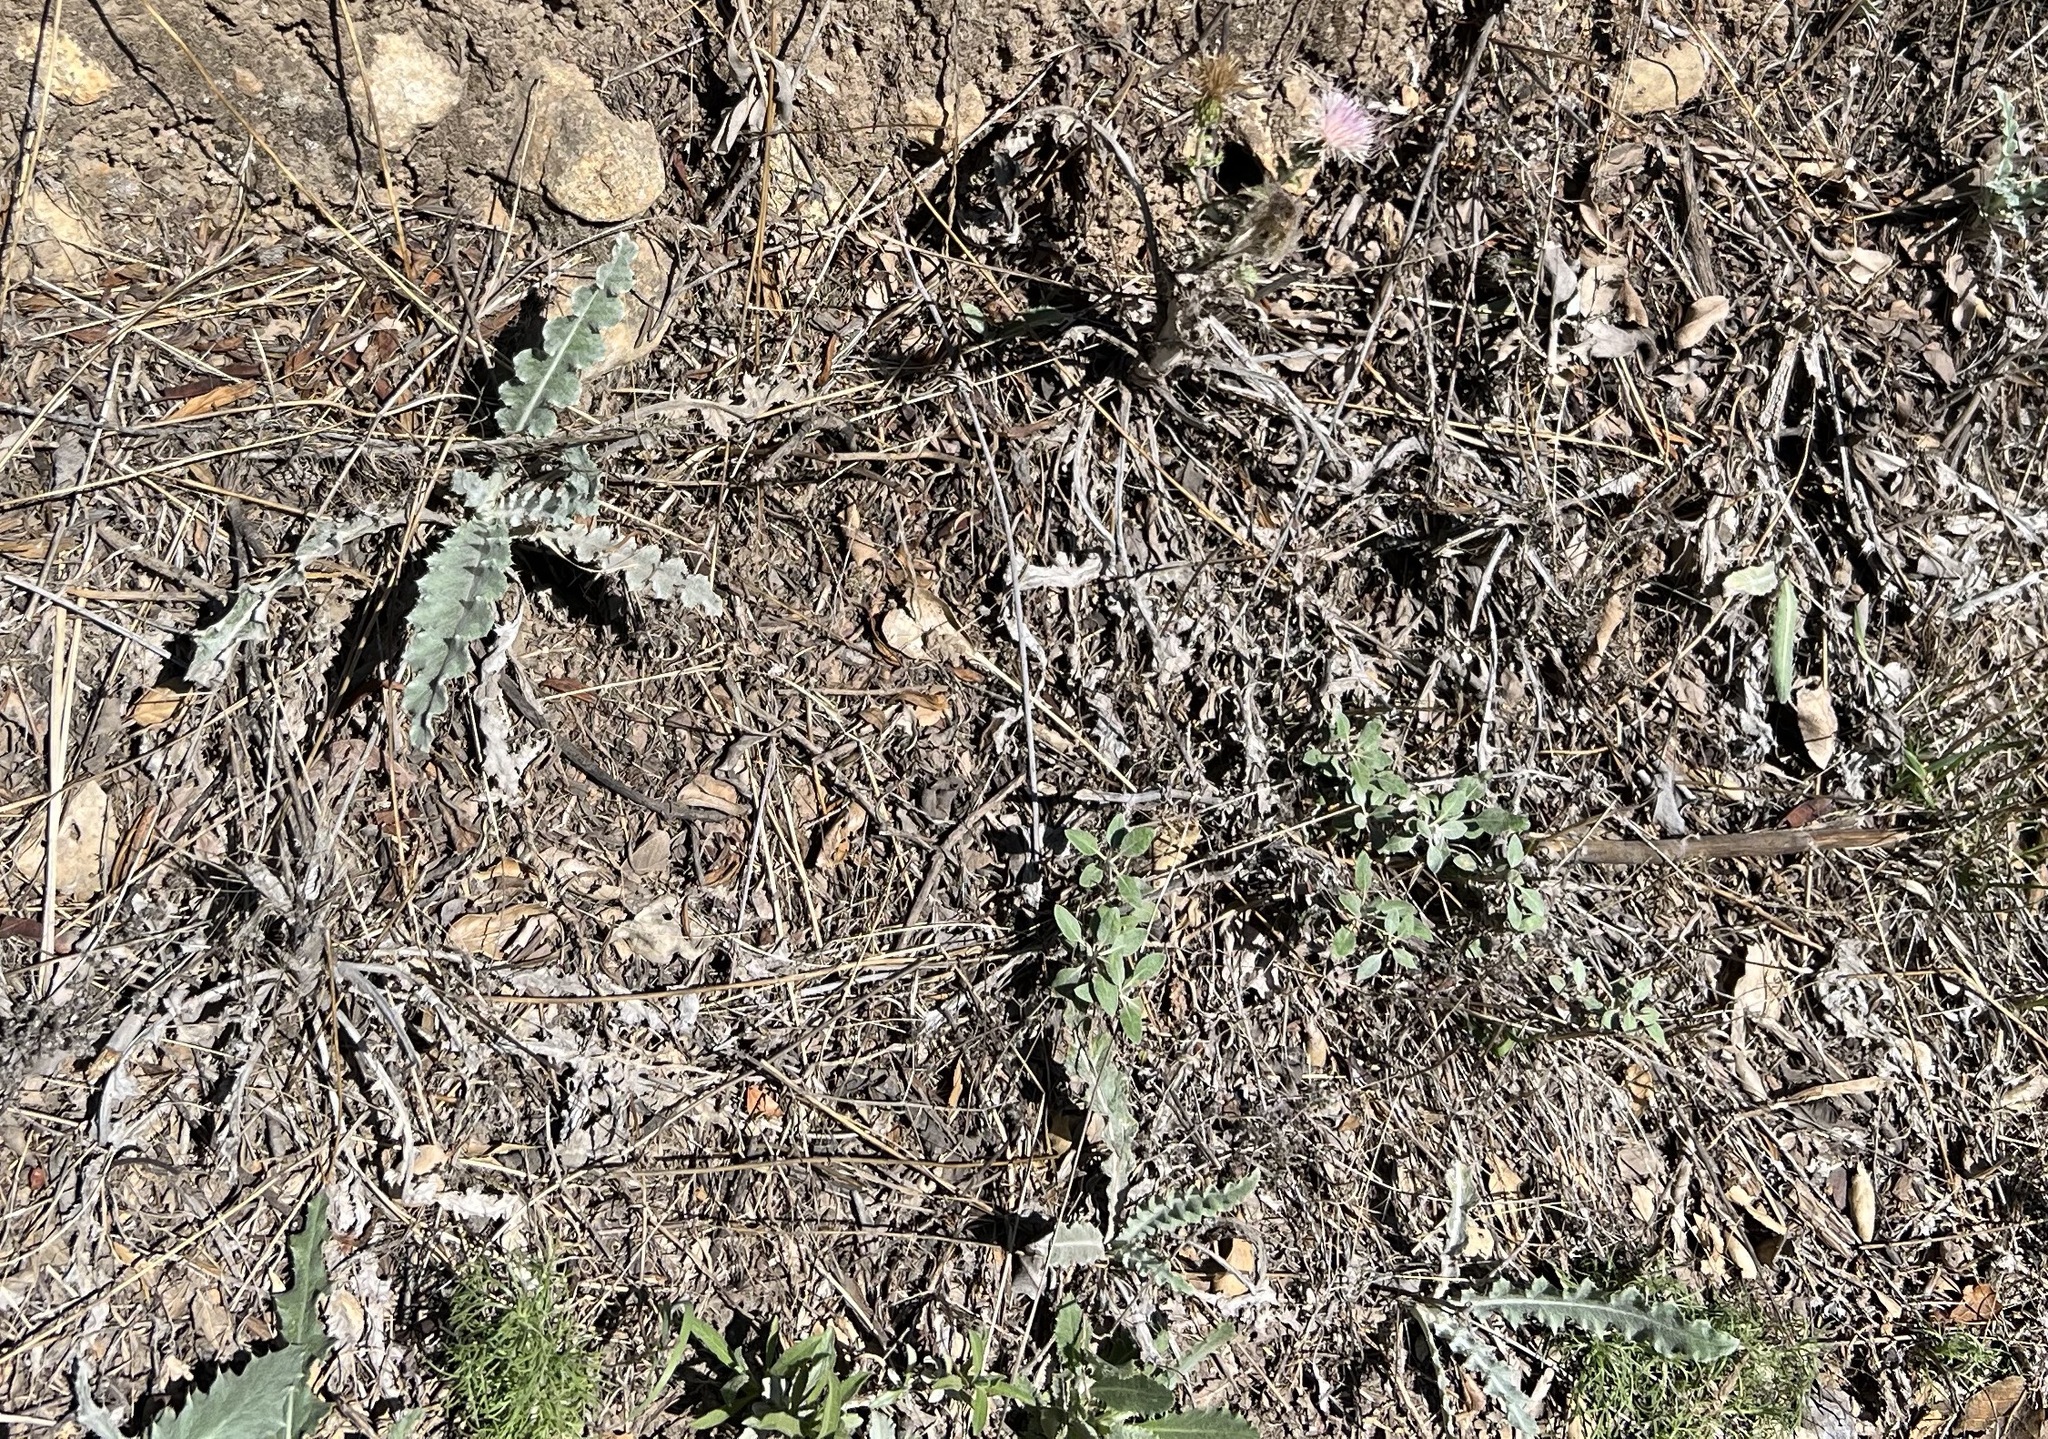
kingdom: Plantae
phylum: Tracheophyta
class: Magnoliopsida
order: Asterales
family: Asteraceae
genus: Cirsium
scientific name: Cirsium occidentale
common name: Western thistle
